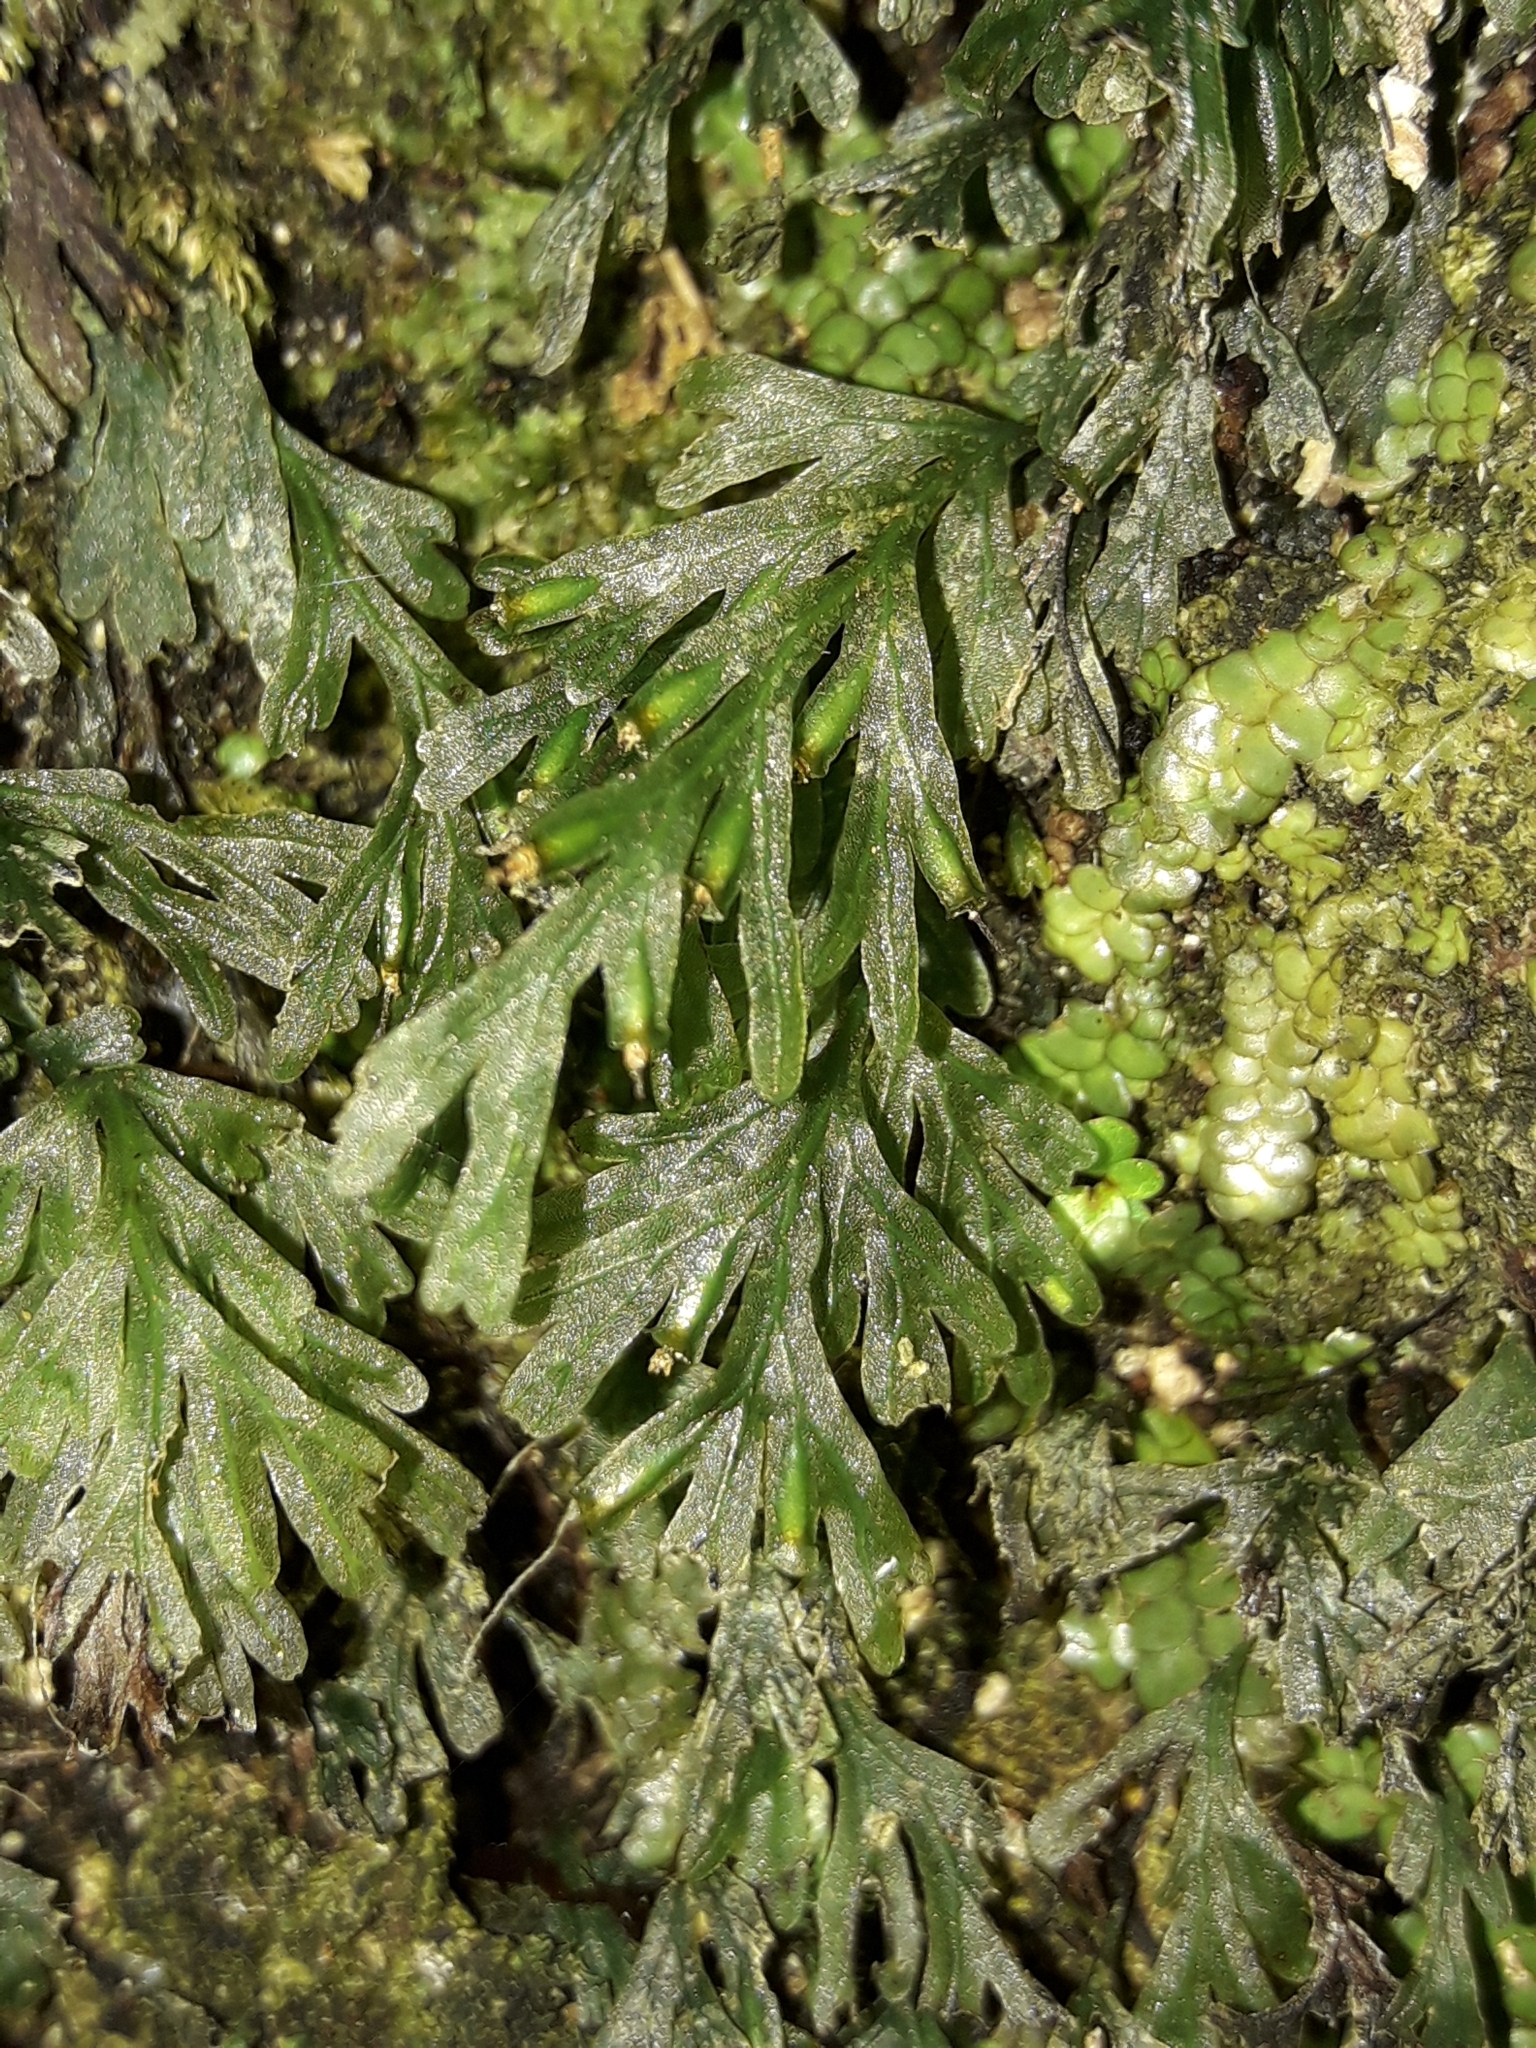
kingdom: Plantae
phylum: Tracheophyta
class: Polypodiopsida
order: Hymenophyllales
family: Hymenophyllaceae
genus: Polyphlebium
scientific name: Polyphlebium endlicherianum
